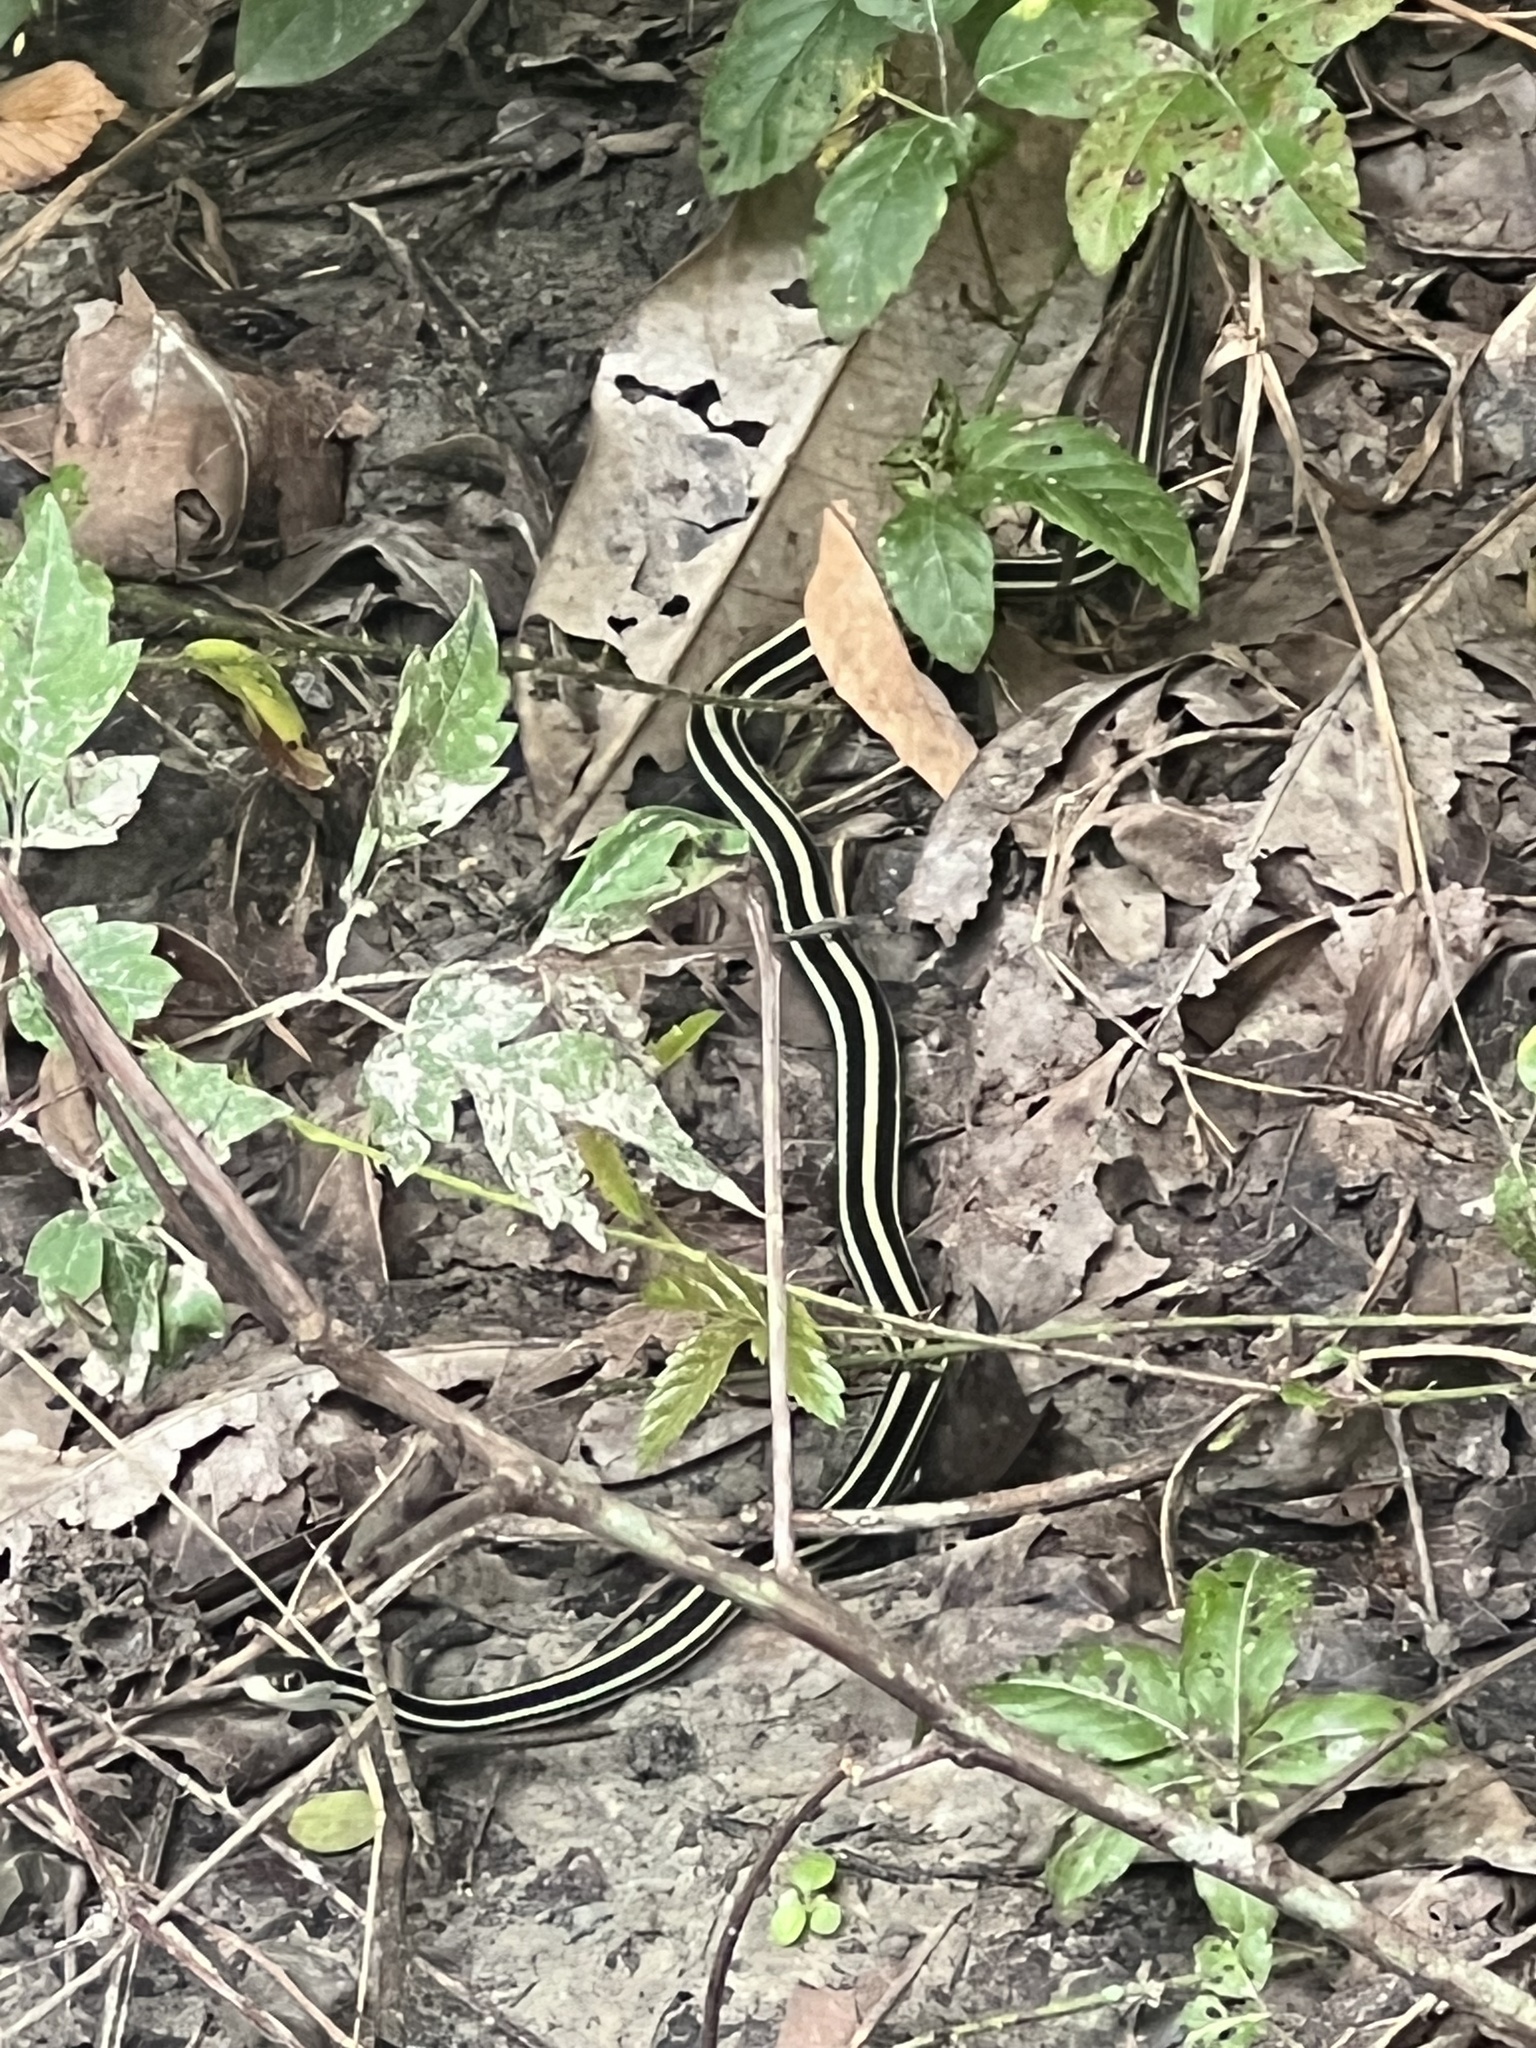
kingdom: Animalia
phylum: Chordata
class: Squamata
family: Colubridae
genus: Thamnophis
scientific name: Thamnophis proximus
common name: Western ribbon snake
